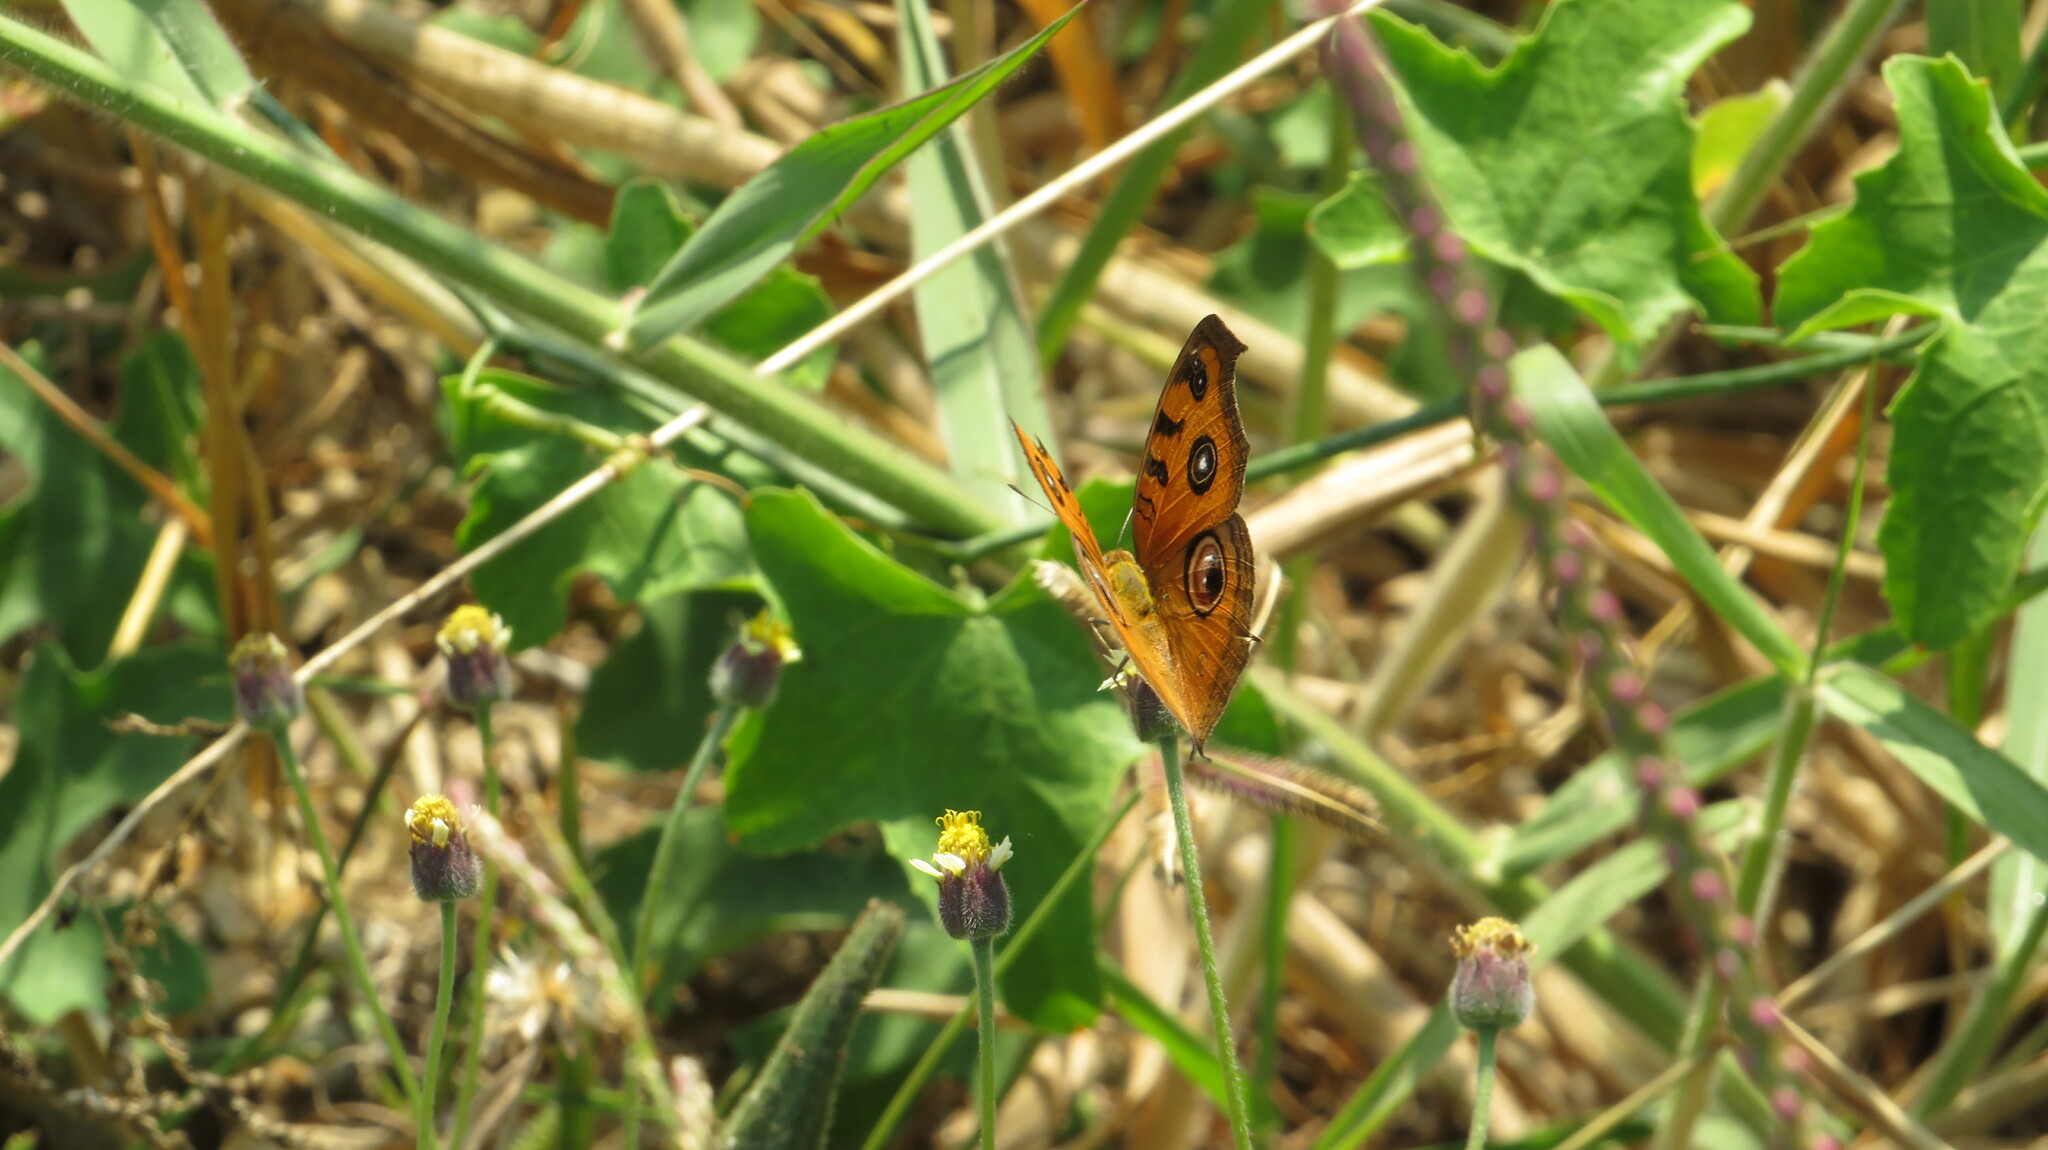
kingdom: Animalia
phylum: Arthropoda
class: Insecta
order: Lepidoptera
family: Nymphalidae
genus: Junonia
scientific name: Junonia almana
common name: Peacock pansy
